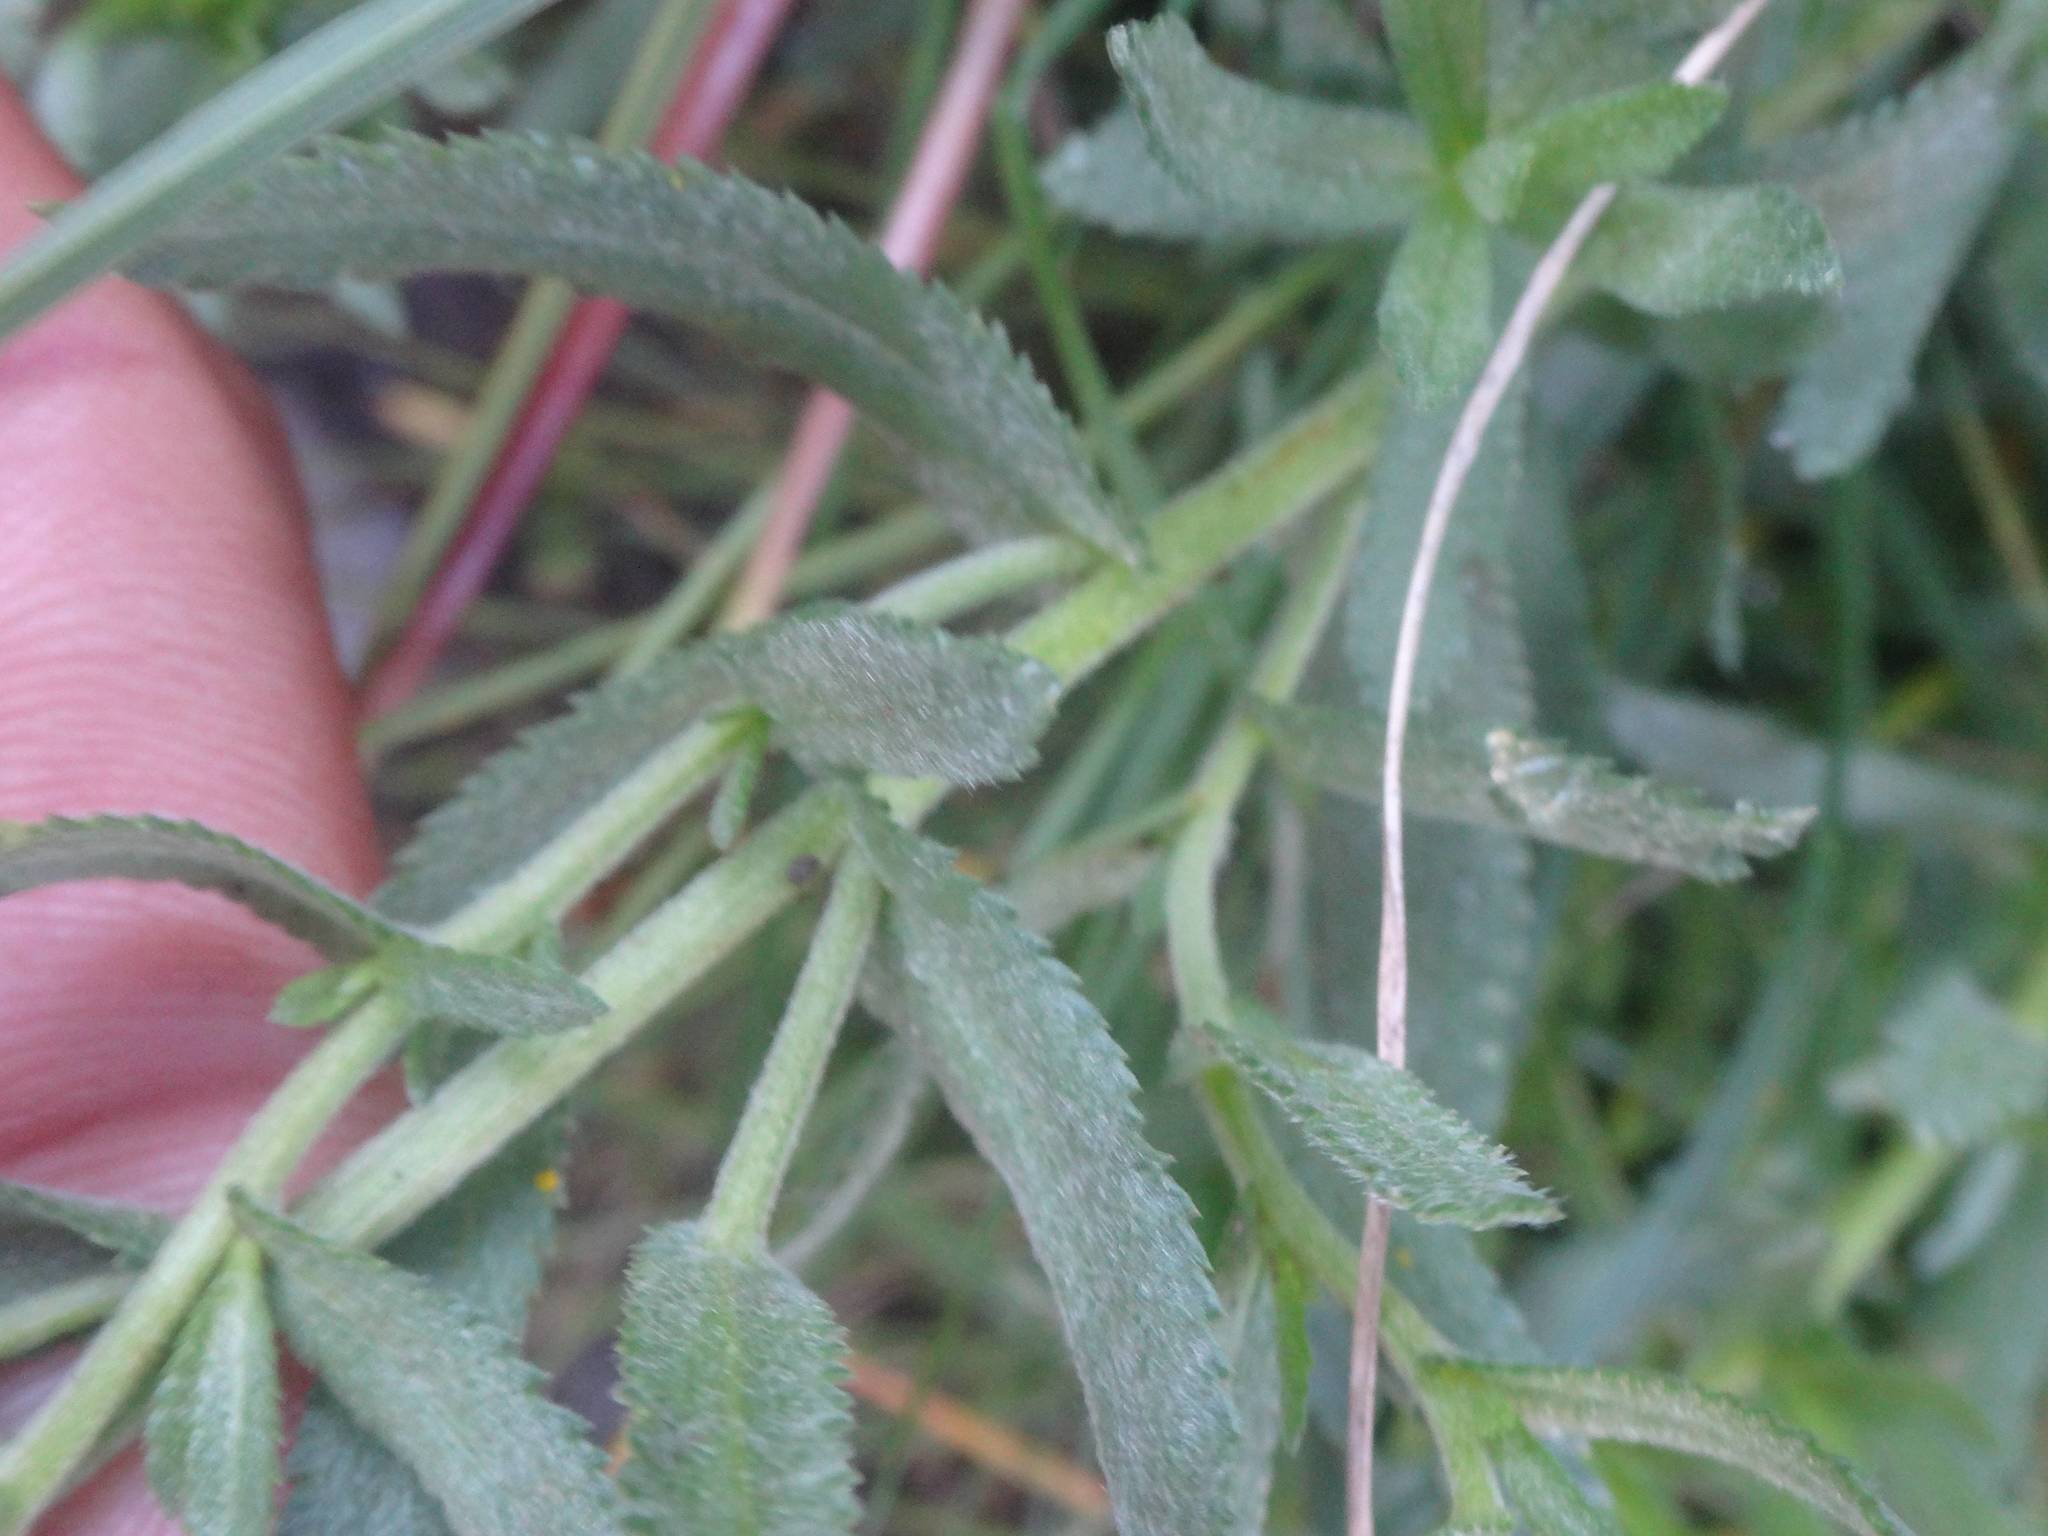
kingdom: Plantae
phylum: Tracheophyta
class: Magnoliopsida
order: Asterales
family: Asteraceae
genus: Achillea
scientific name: Achillea pyrenaica
